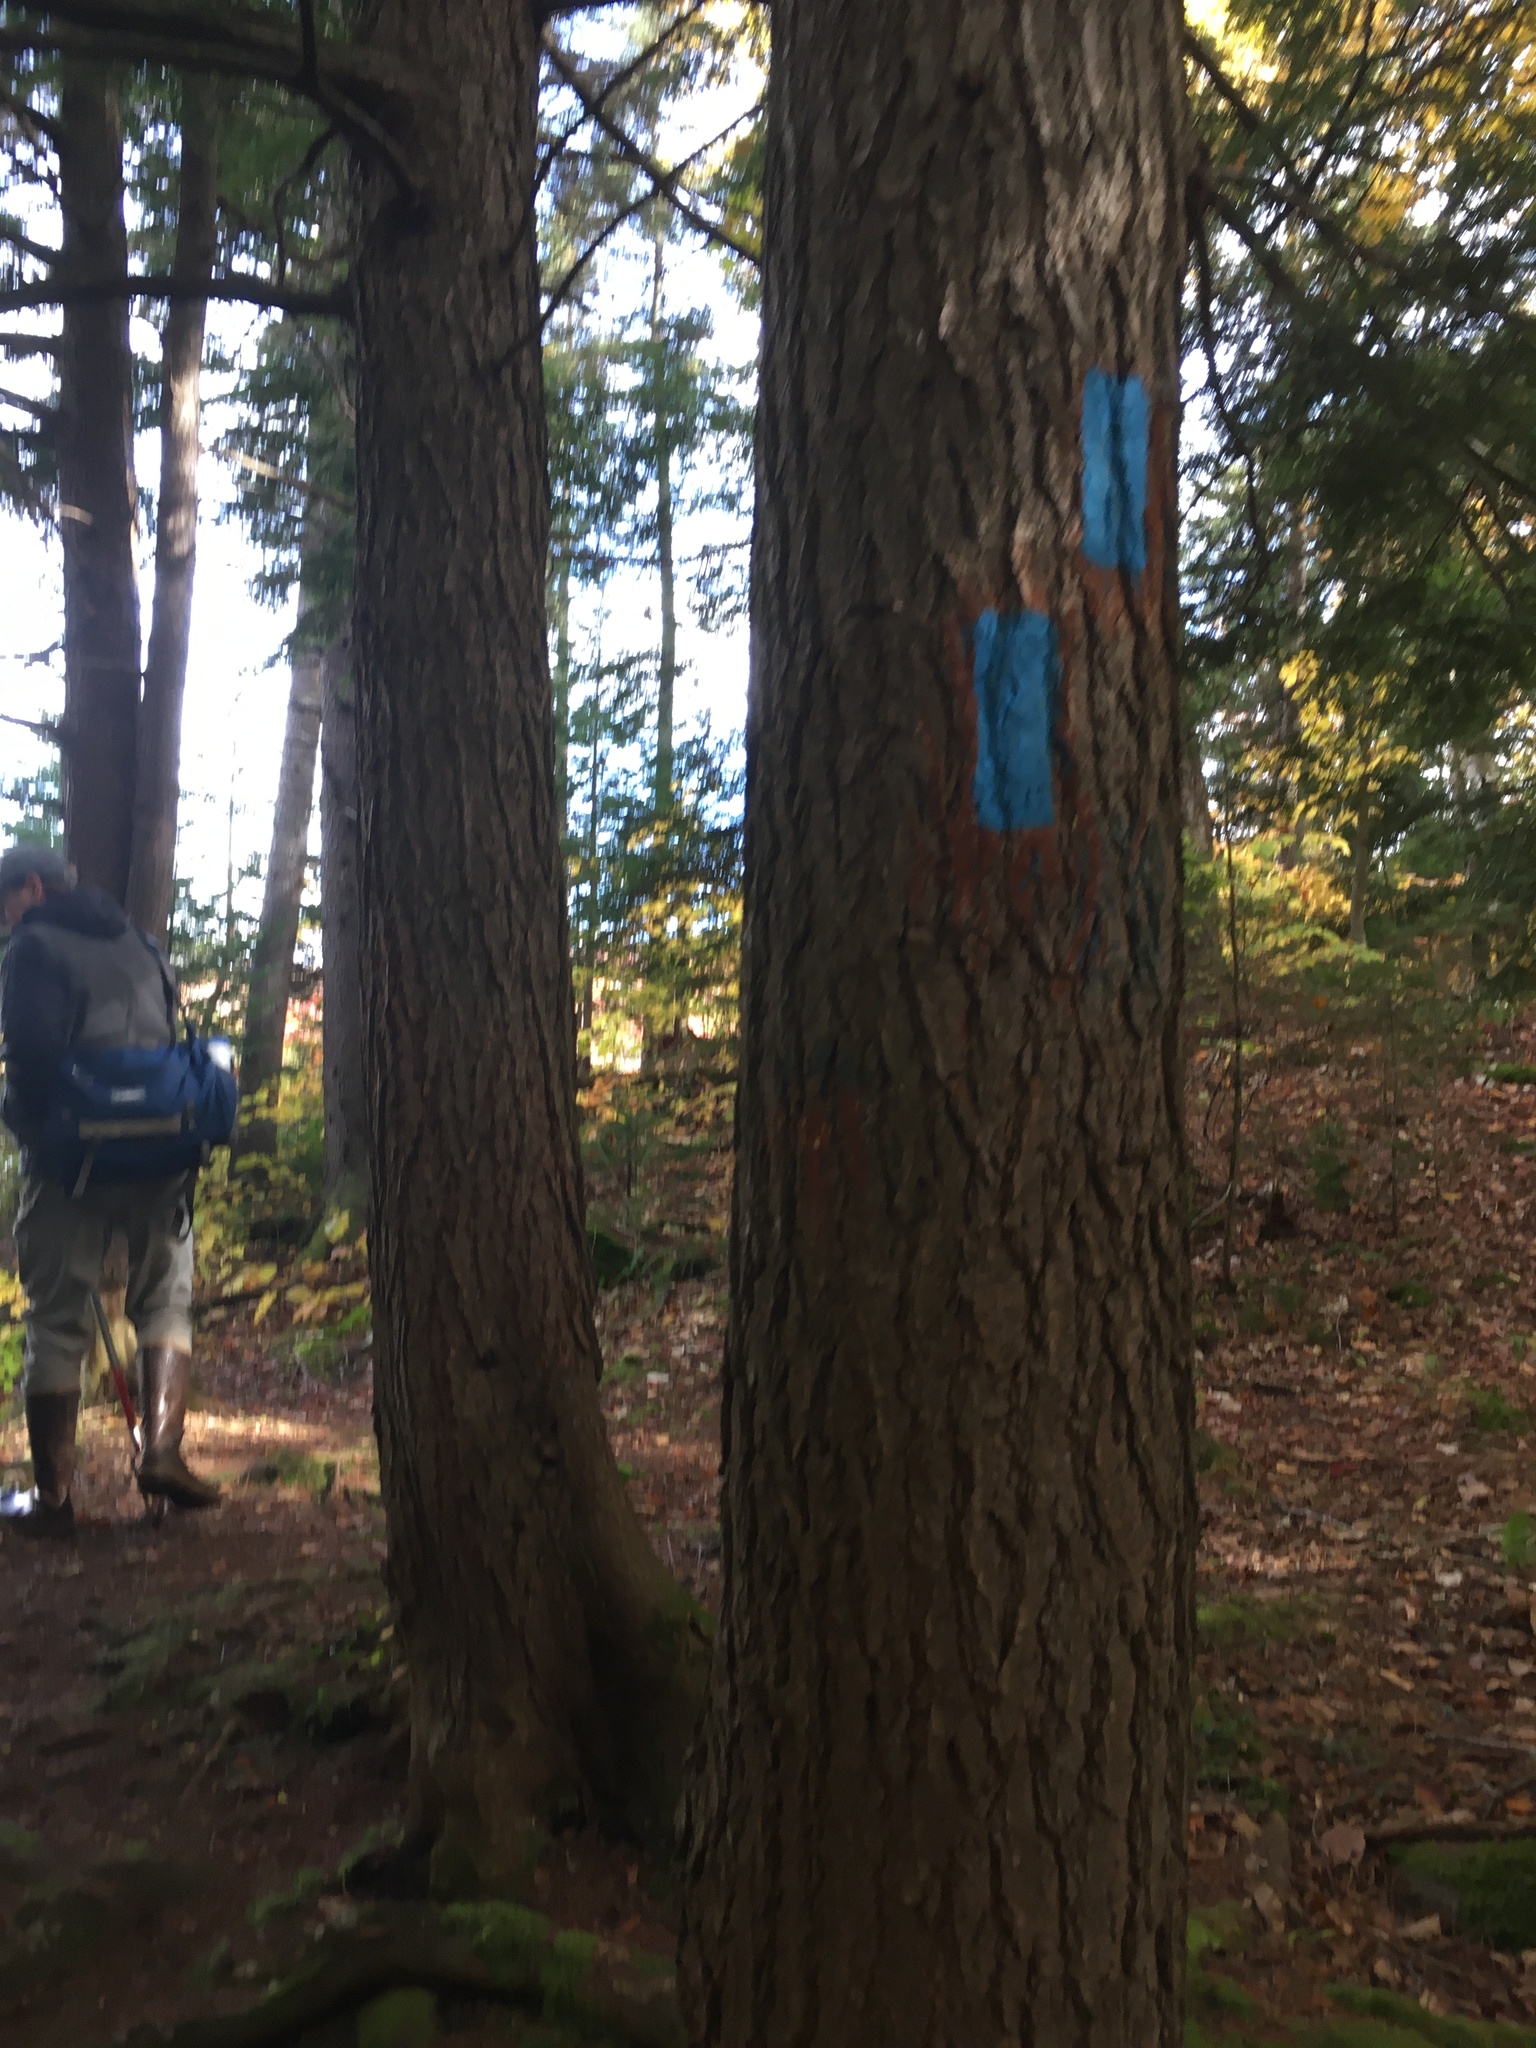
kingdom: Plantae
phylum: Tracheophyta
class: Pinopsida
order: Pinales
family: Pinaceae
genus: Tsuga
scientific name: Tsuga canadensis
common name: Eastern hemlock
